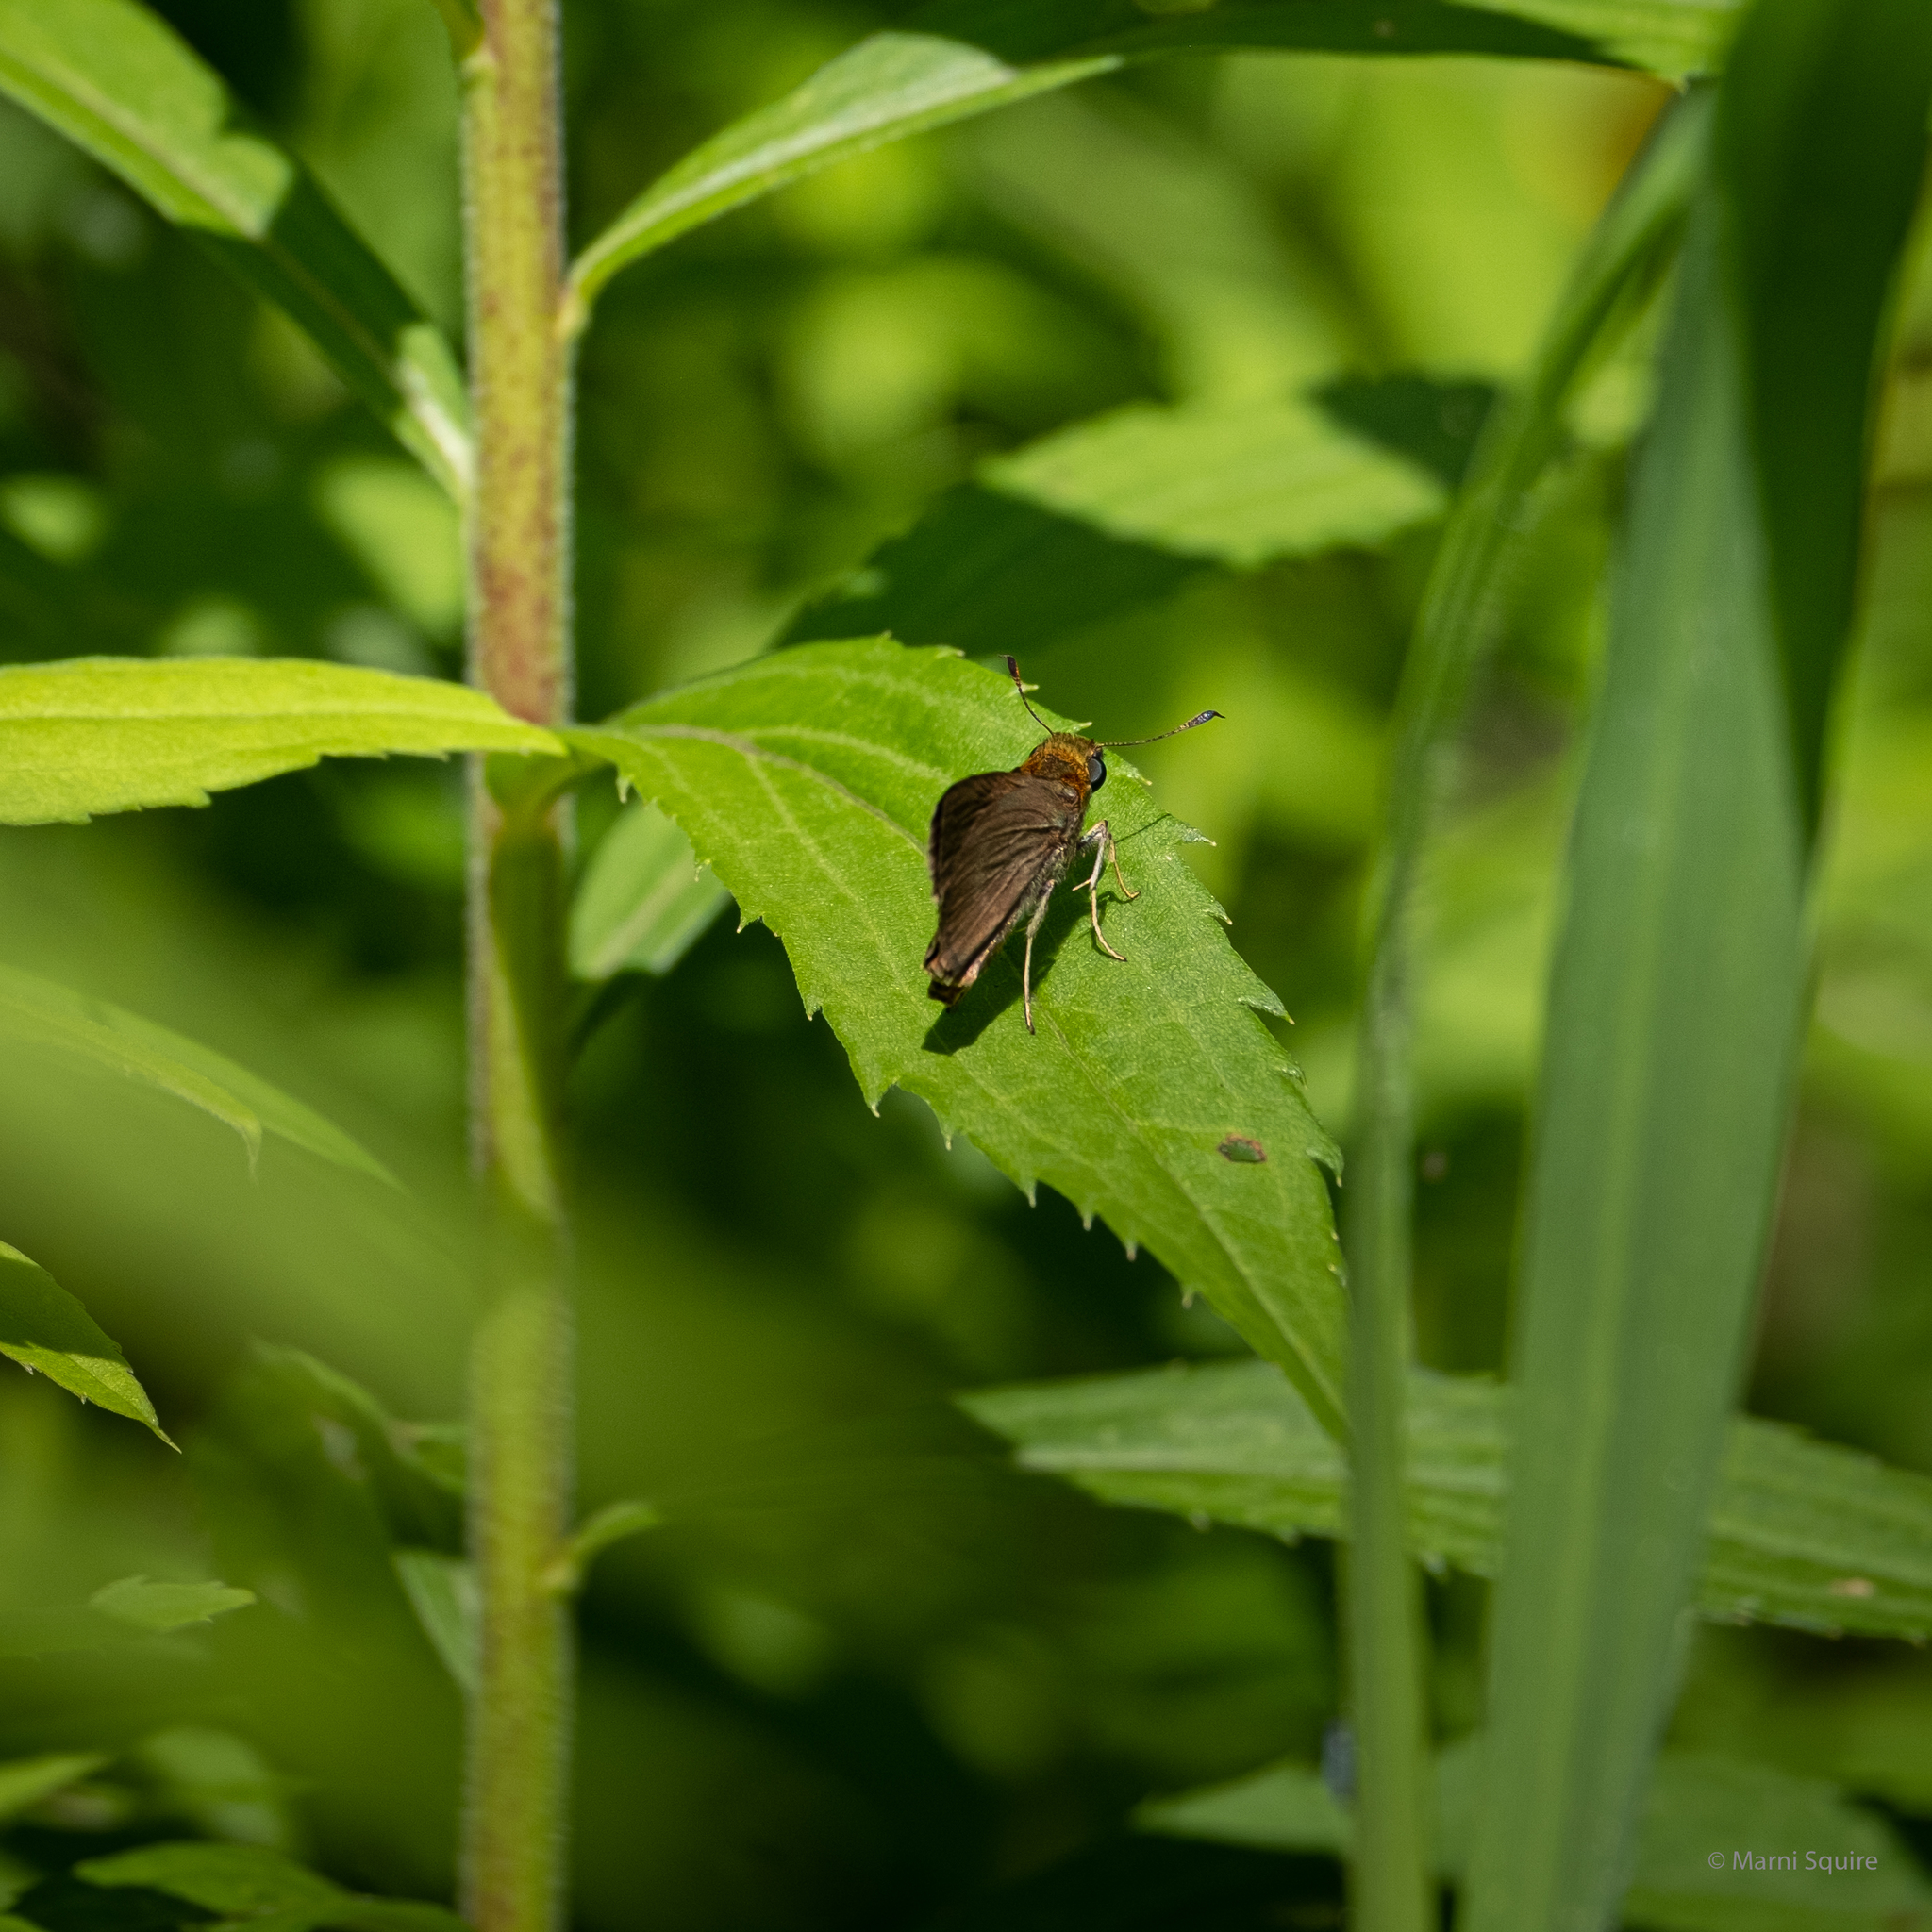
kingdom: Animalia
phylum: Arthropoda
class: Insecta
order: Lepidoptera
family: Hesperiidae
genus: Euphyes
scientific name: Euphyes vestris
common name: Dun skipper
